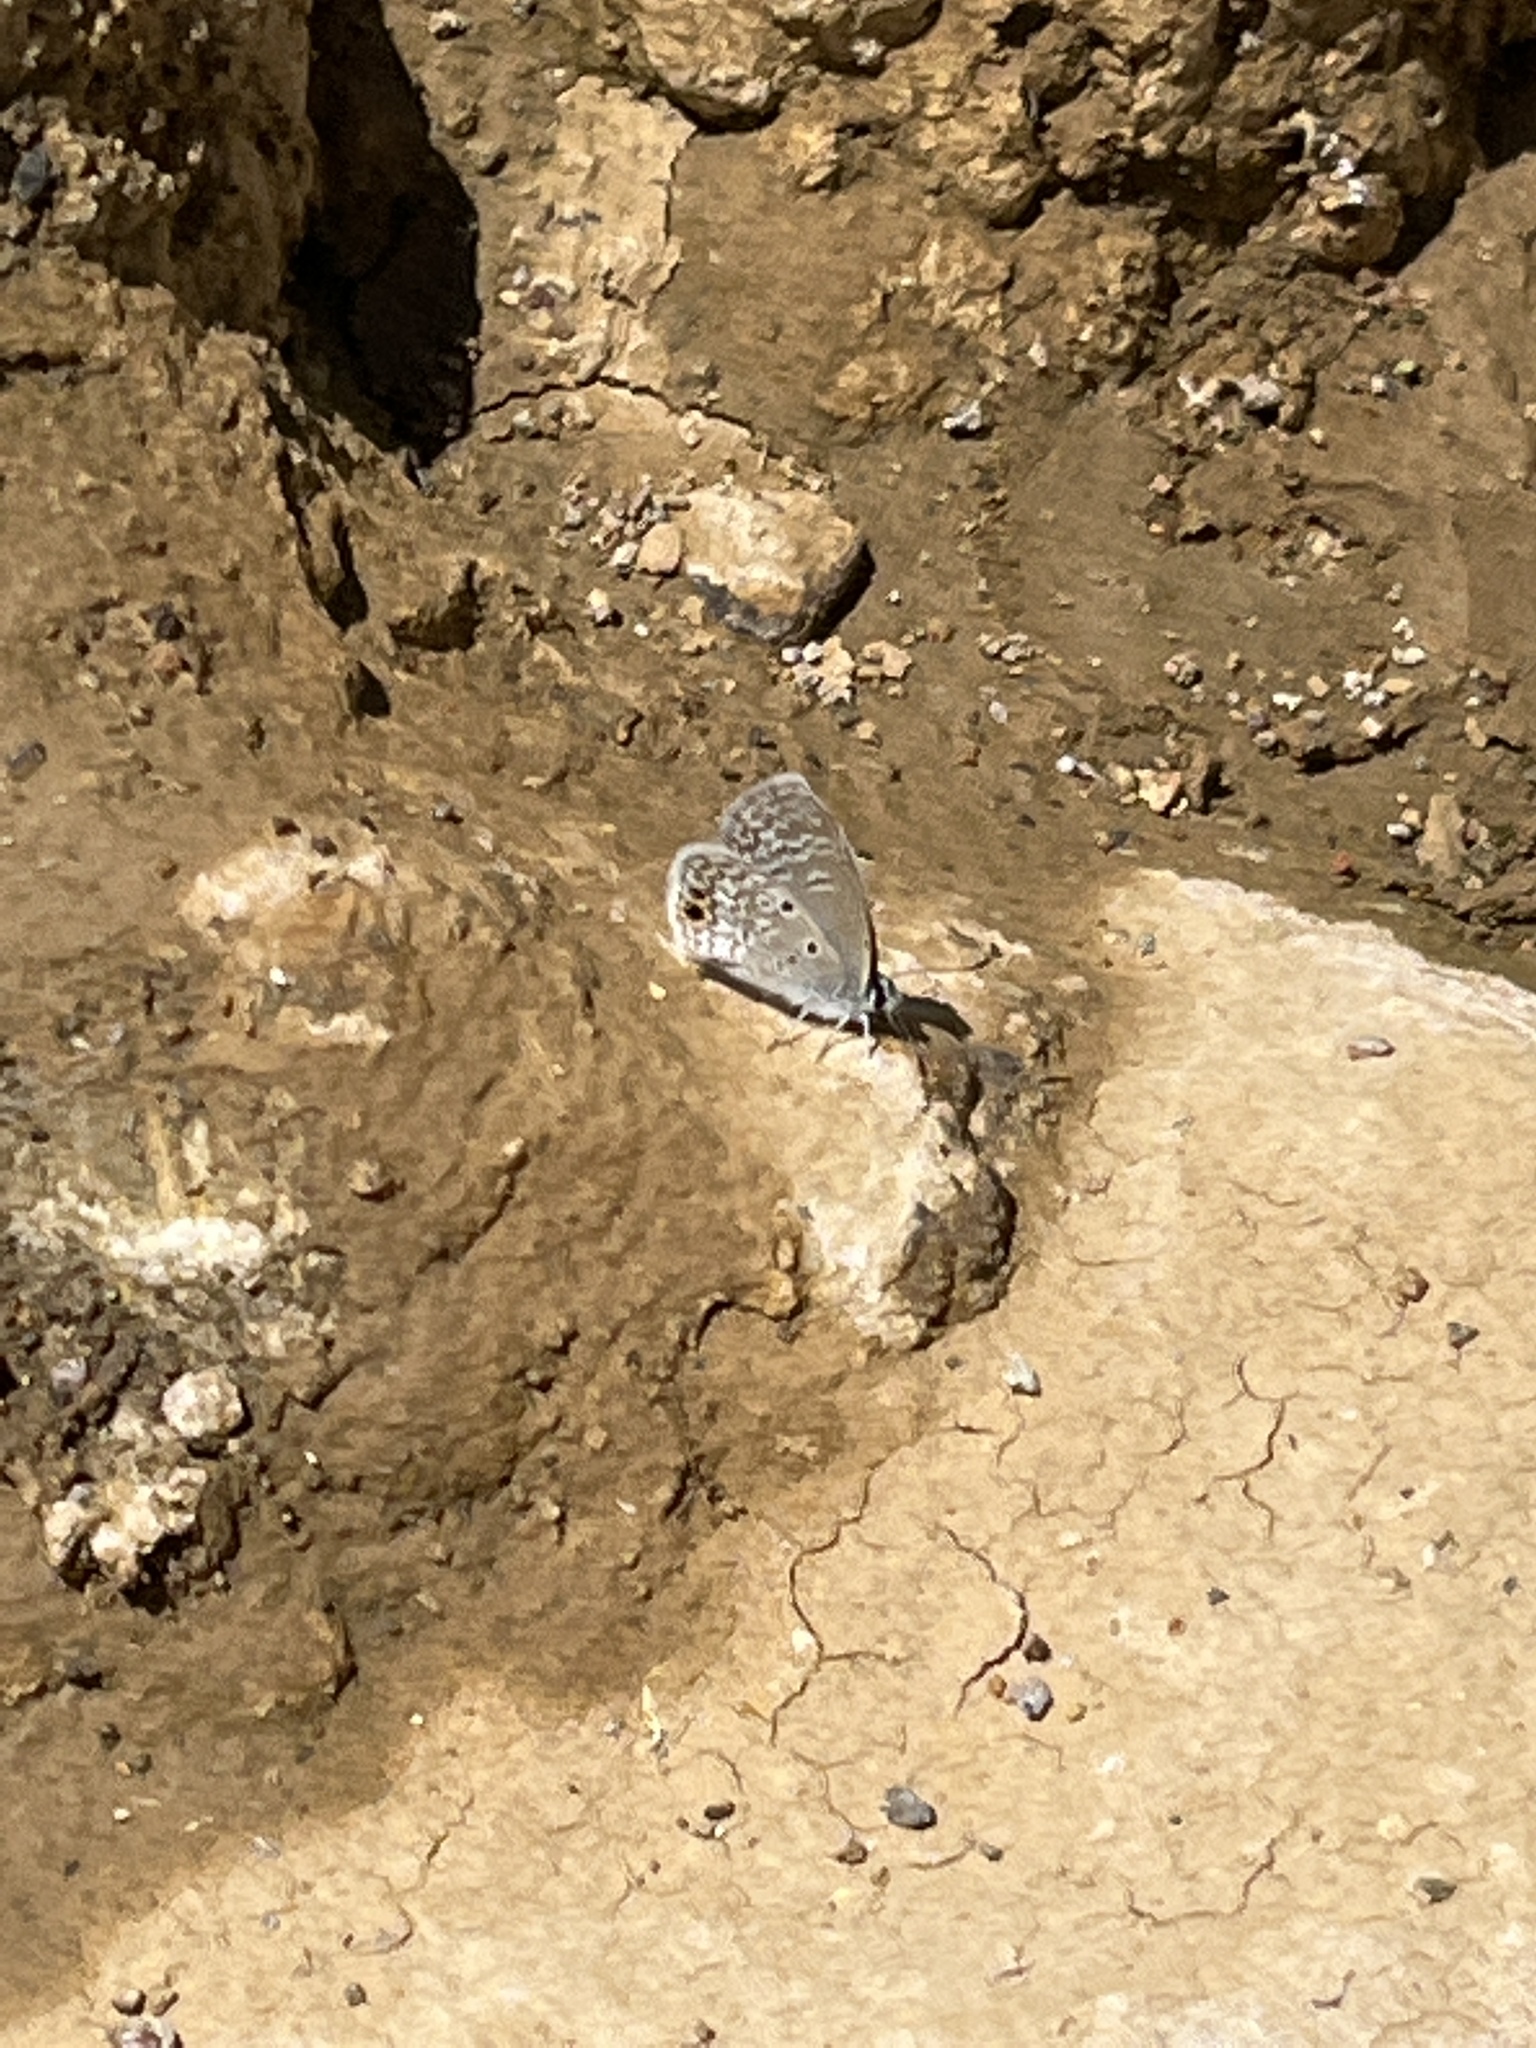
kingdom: Animalia
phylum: Arthropoda
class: Insecta
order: Lepidoptera
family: Lycaenidae
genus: Hemiargus
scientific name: Hemiargus ceraunus
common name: Ceraunus blue
